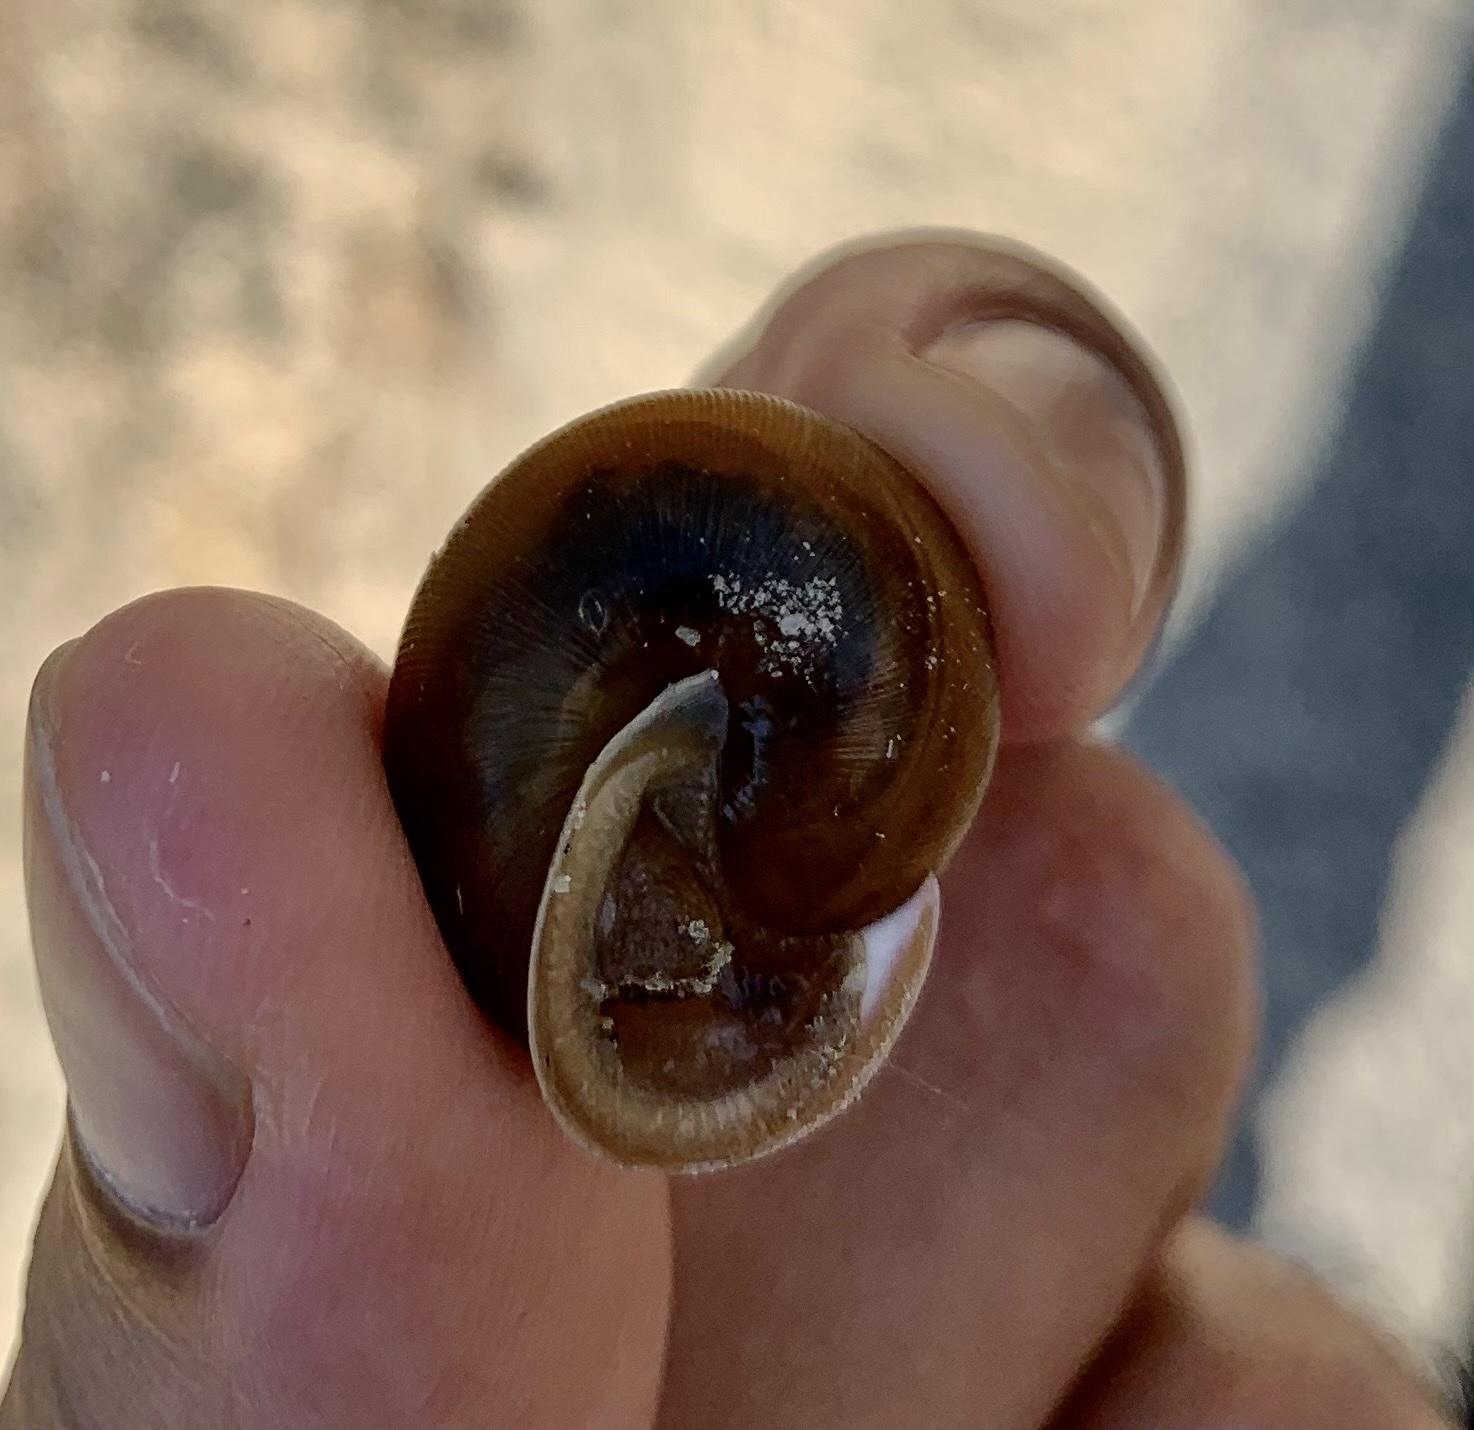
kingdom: Animalia
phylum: Mollusca
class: Gastropoda
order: Stylommatophora
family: Polygyridae
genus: Mesodon
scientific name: Mesodon thyroidus
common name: White-lip globe
